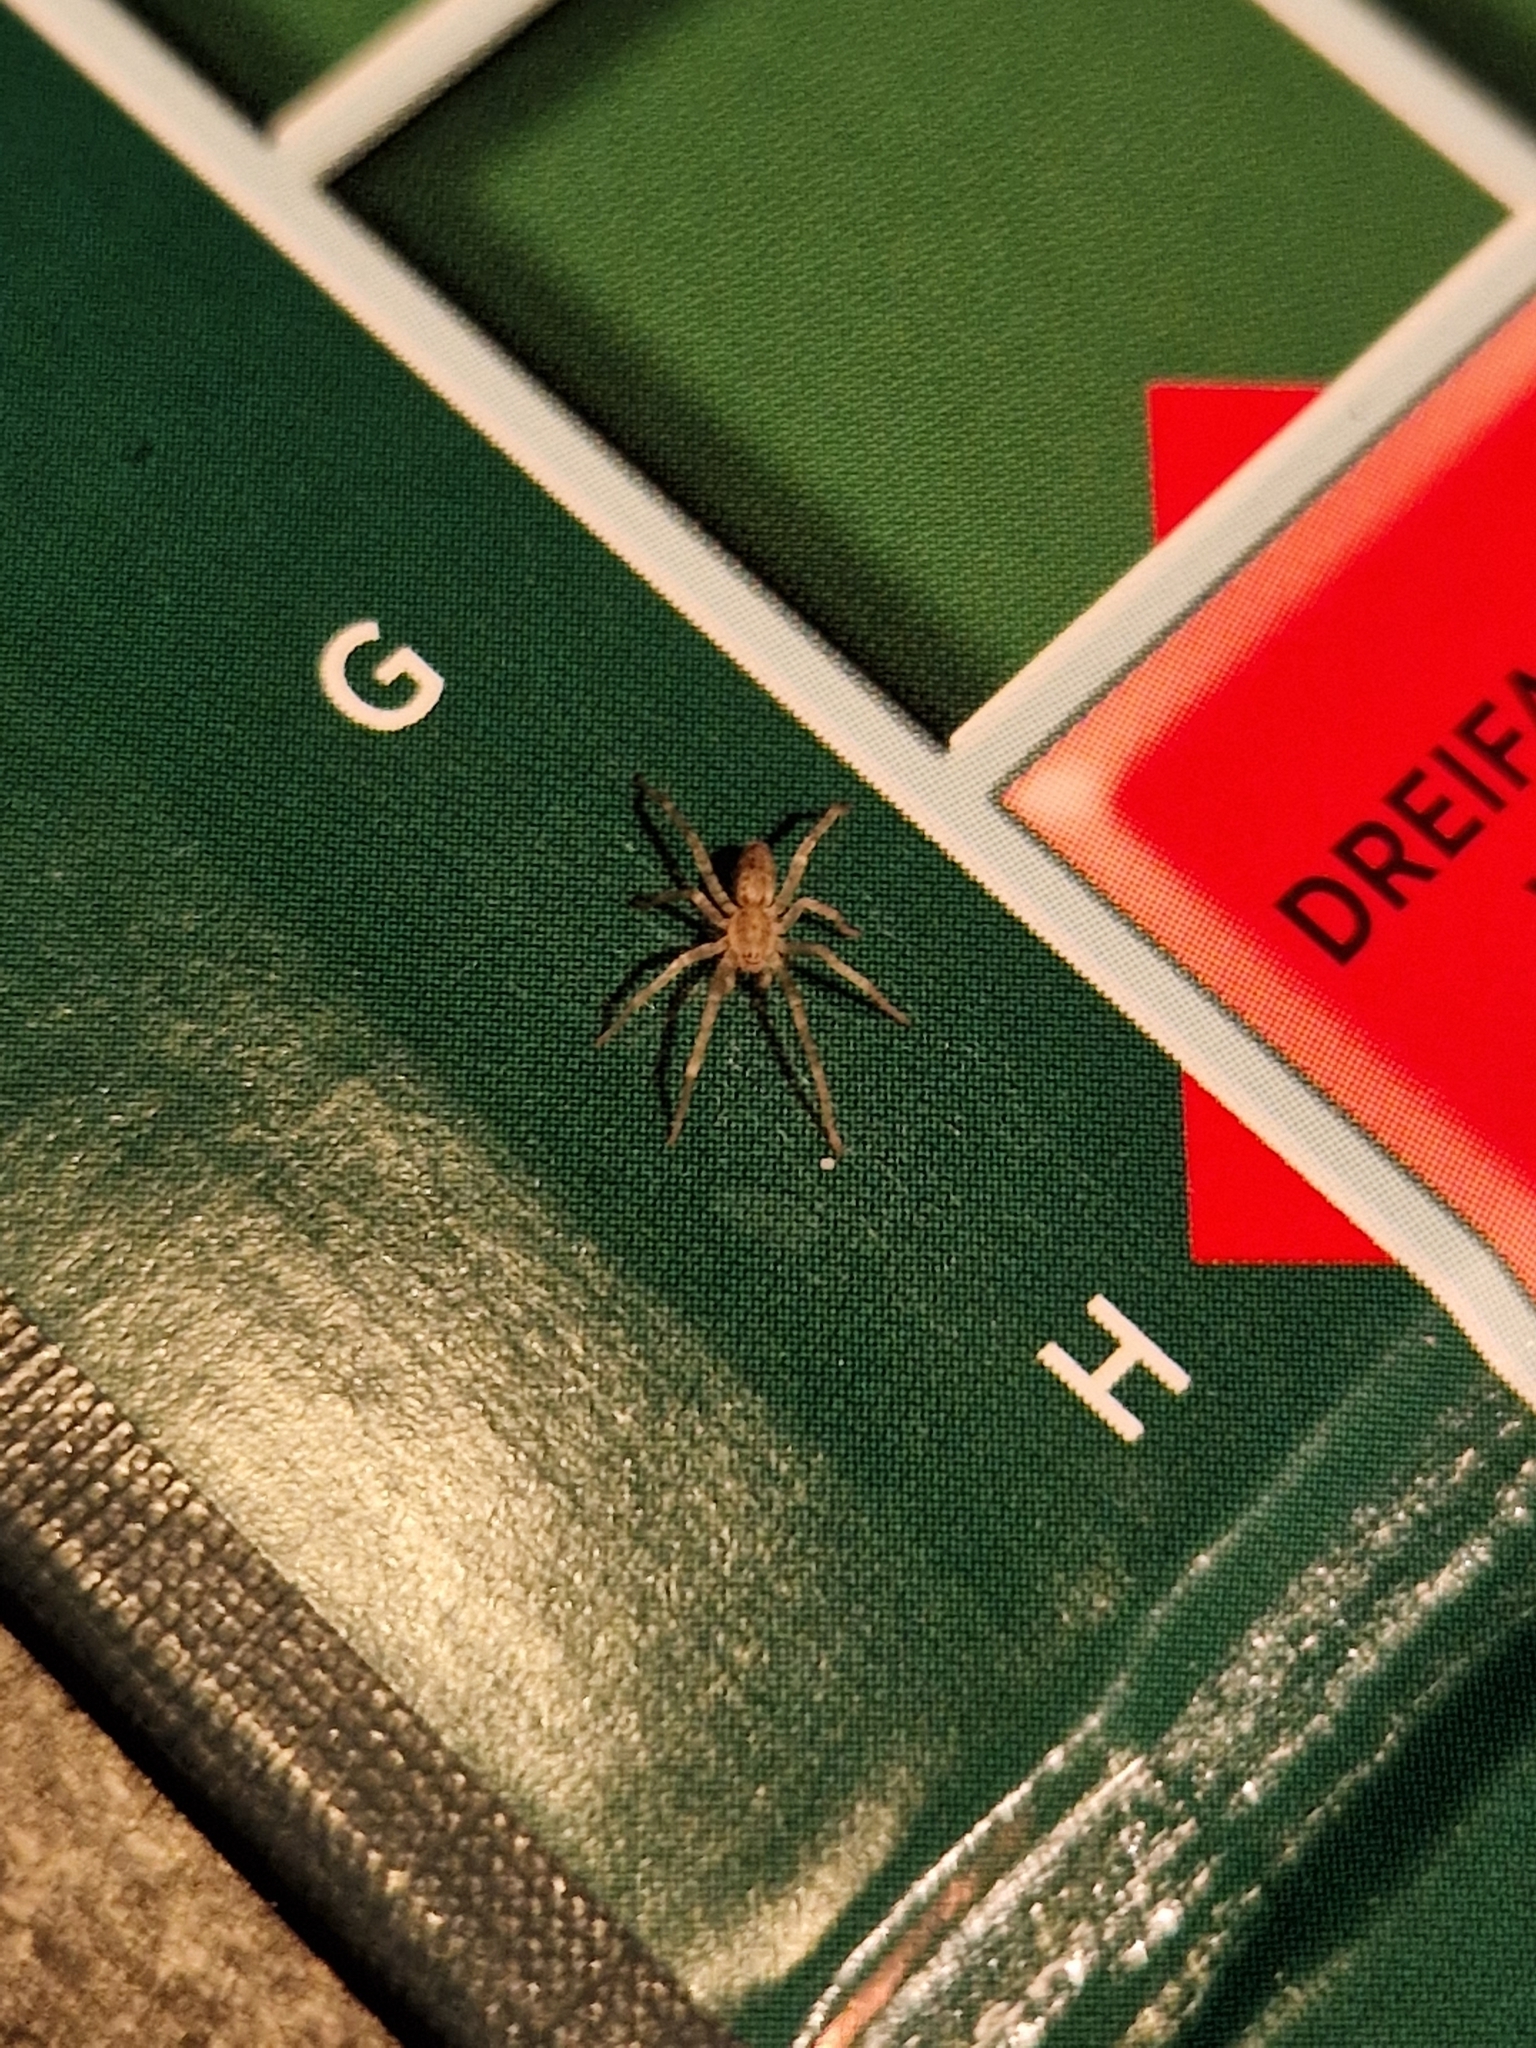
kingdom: Animalia
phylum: Arthropoda
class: Arachnida
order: Araneae
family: Anyphaenidae
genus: Anyphaena
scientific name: Anyphaena accentuata
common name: Buzzing spider
